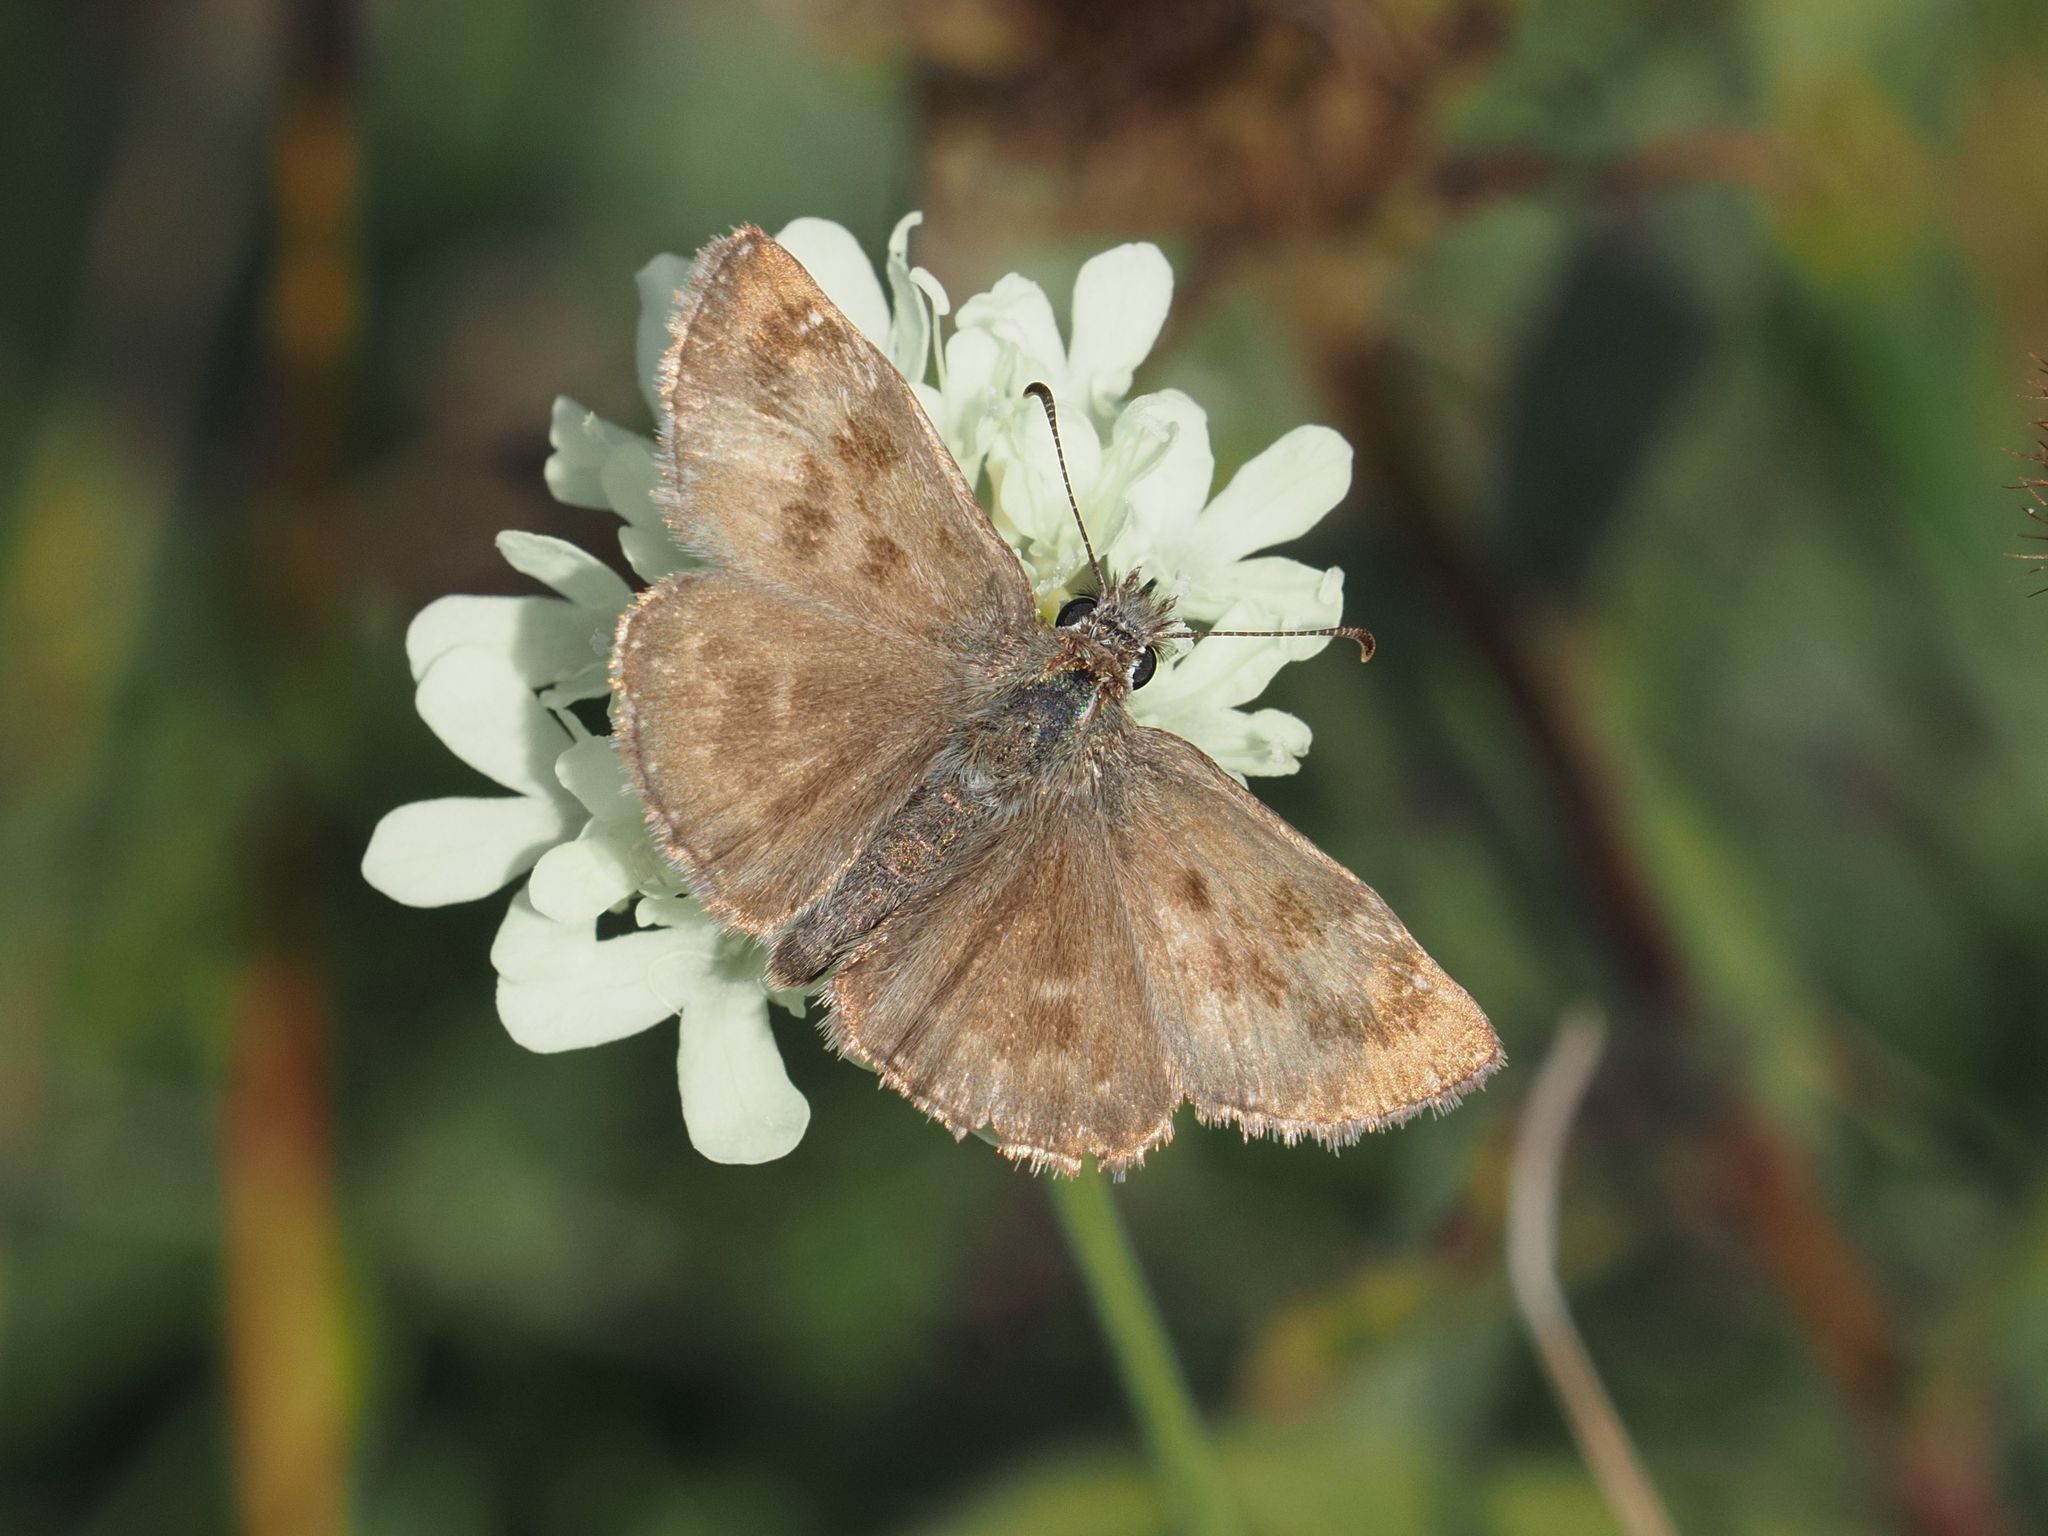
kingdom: Animalia
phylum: Arthropoda
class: Insecta
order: Lepidoptera
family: Hesperiidae
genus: Erynnis
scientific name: Erynnis tages
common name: Dingy skipper
